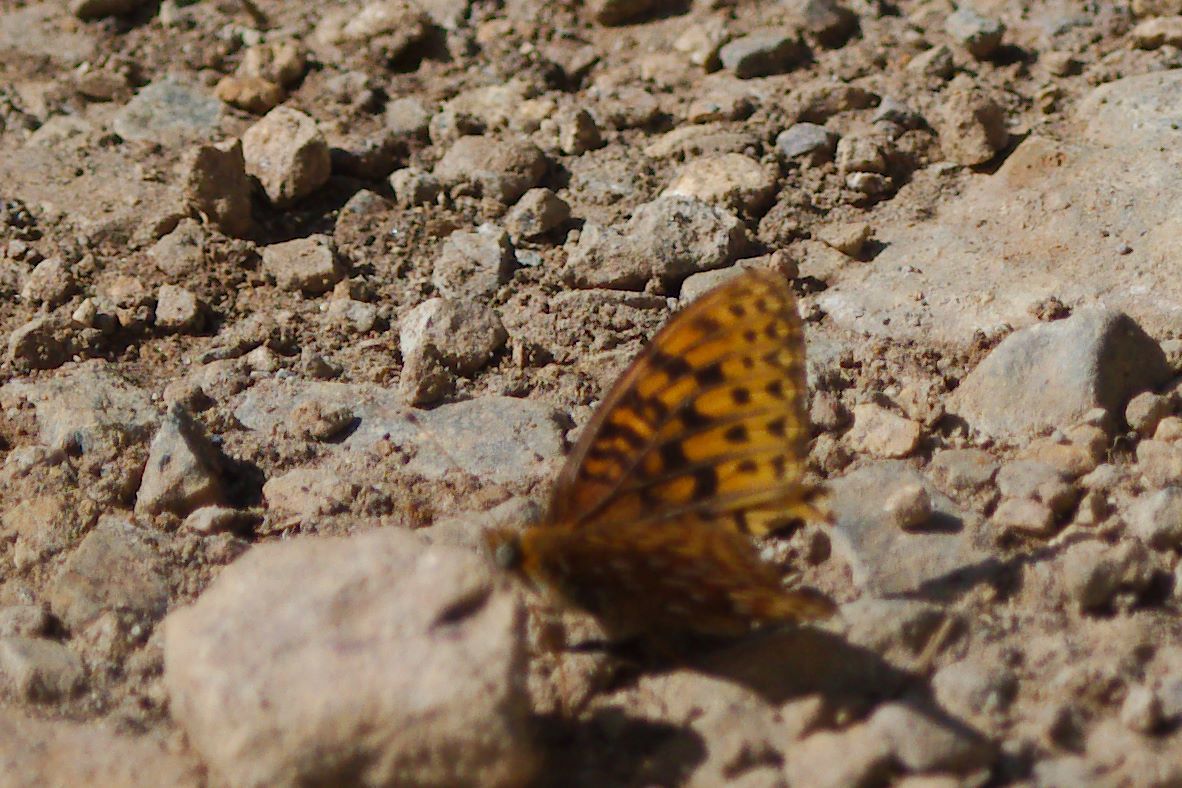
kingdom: Animalia
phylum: Arthropoda
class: Insecta
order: Lepidoptera
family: Nymphalidae
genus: Speyeria
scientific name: Speyeria atlantis
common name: Atlantis fritillary
